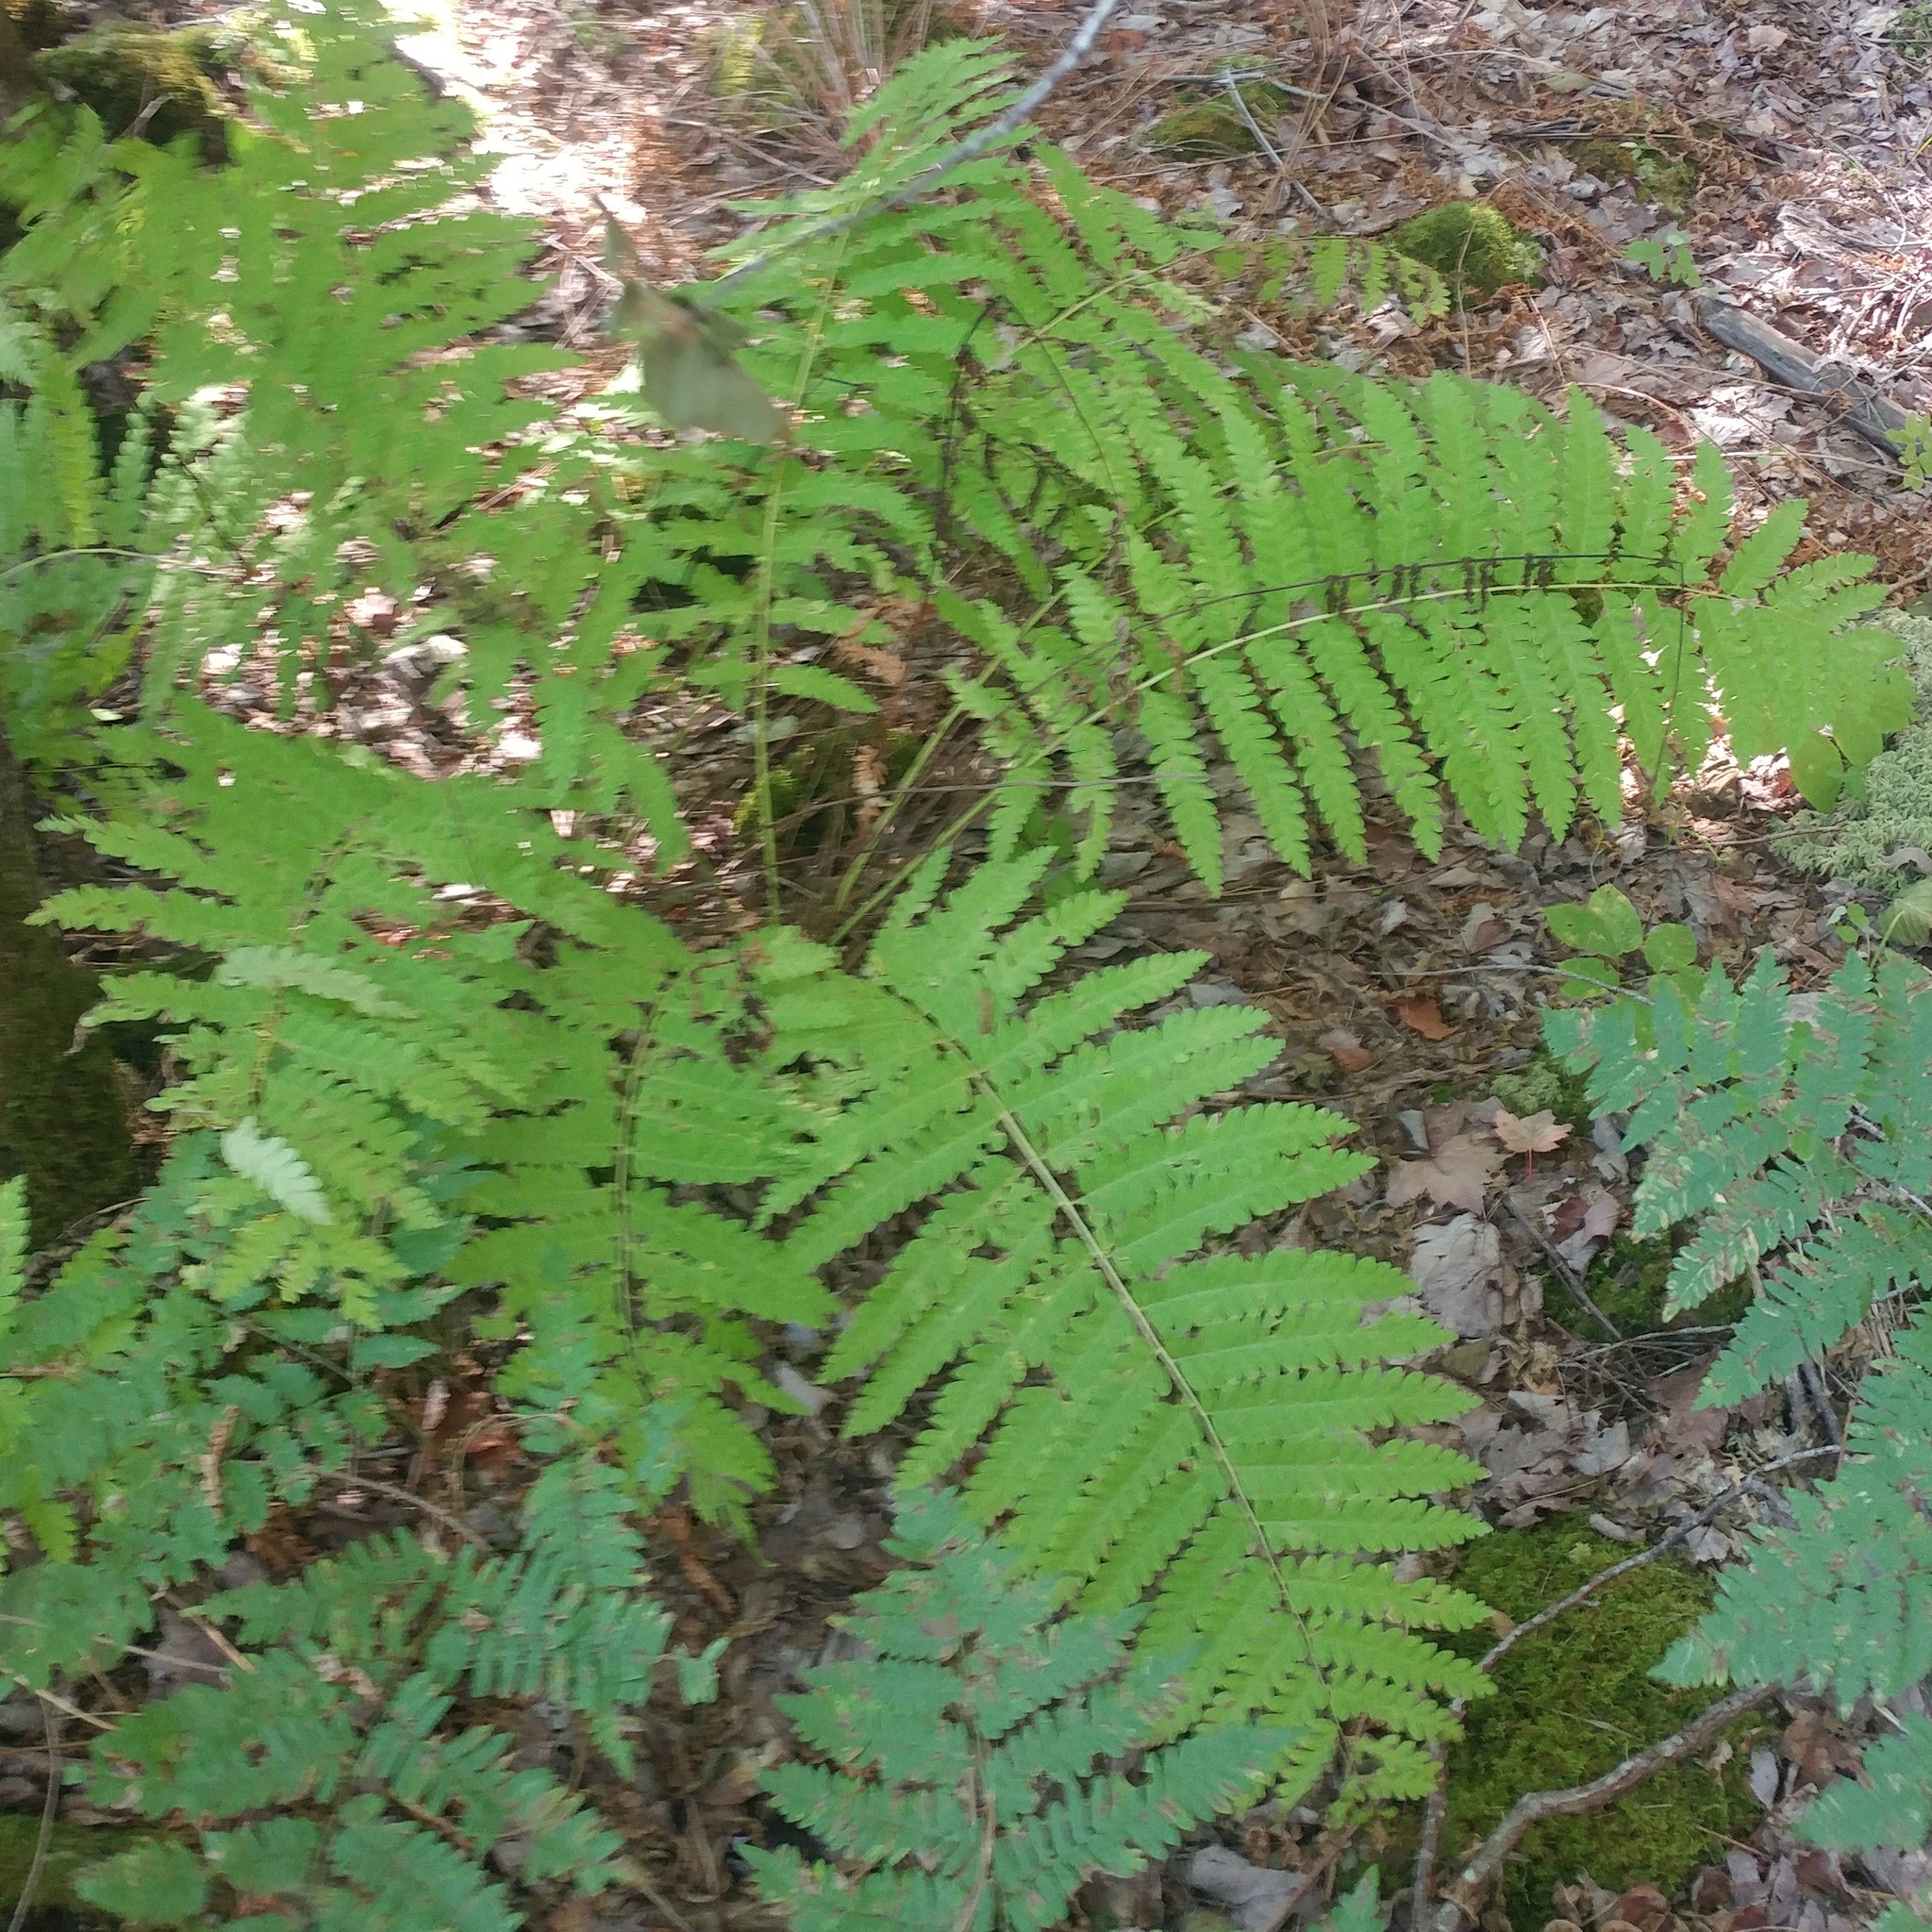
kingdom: Plantae
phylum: Tracheophyta
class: Polypodiopsida
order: Osmundales
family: Osmundaceae
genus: Claytosmunda
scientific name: Claytosmunda claytoniana
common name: Clayton's fern
